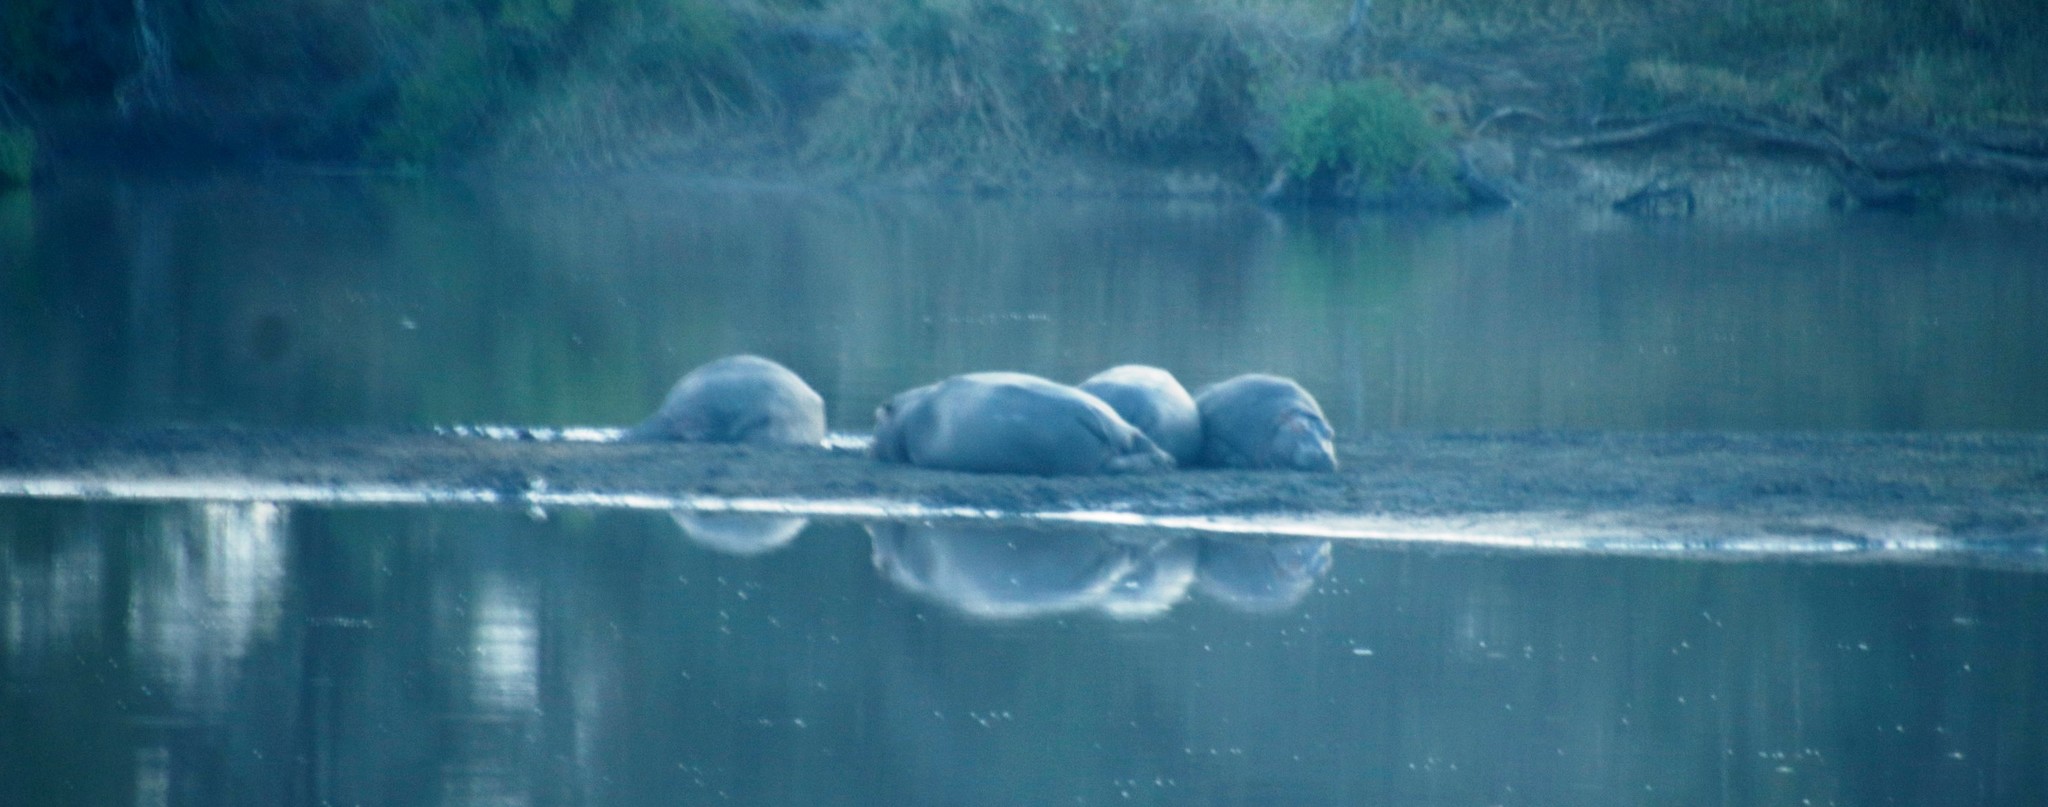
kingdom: Animalia
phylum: Chordata
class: Mammalia
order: Artiodactyla
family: Hippopotamidae
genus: Hippopotamus
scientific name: Hippopotamus amphibius
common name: Common hippopotamus
